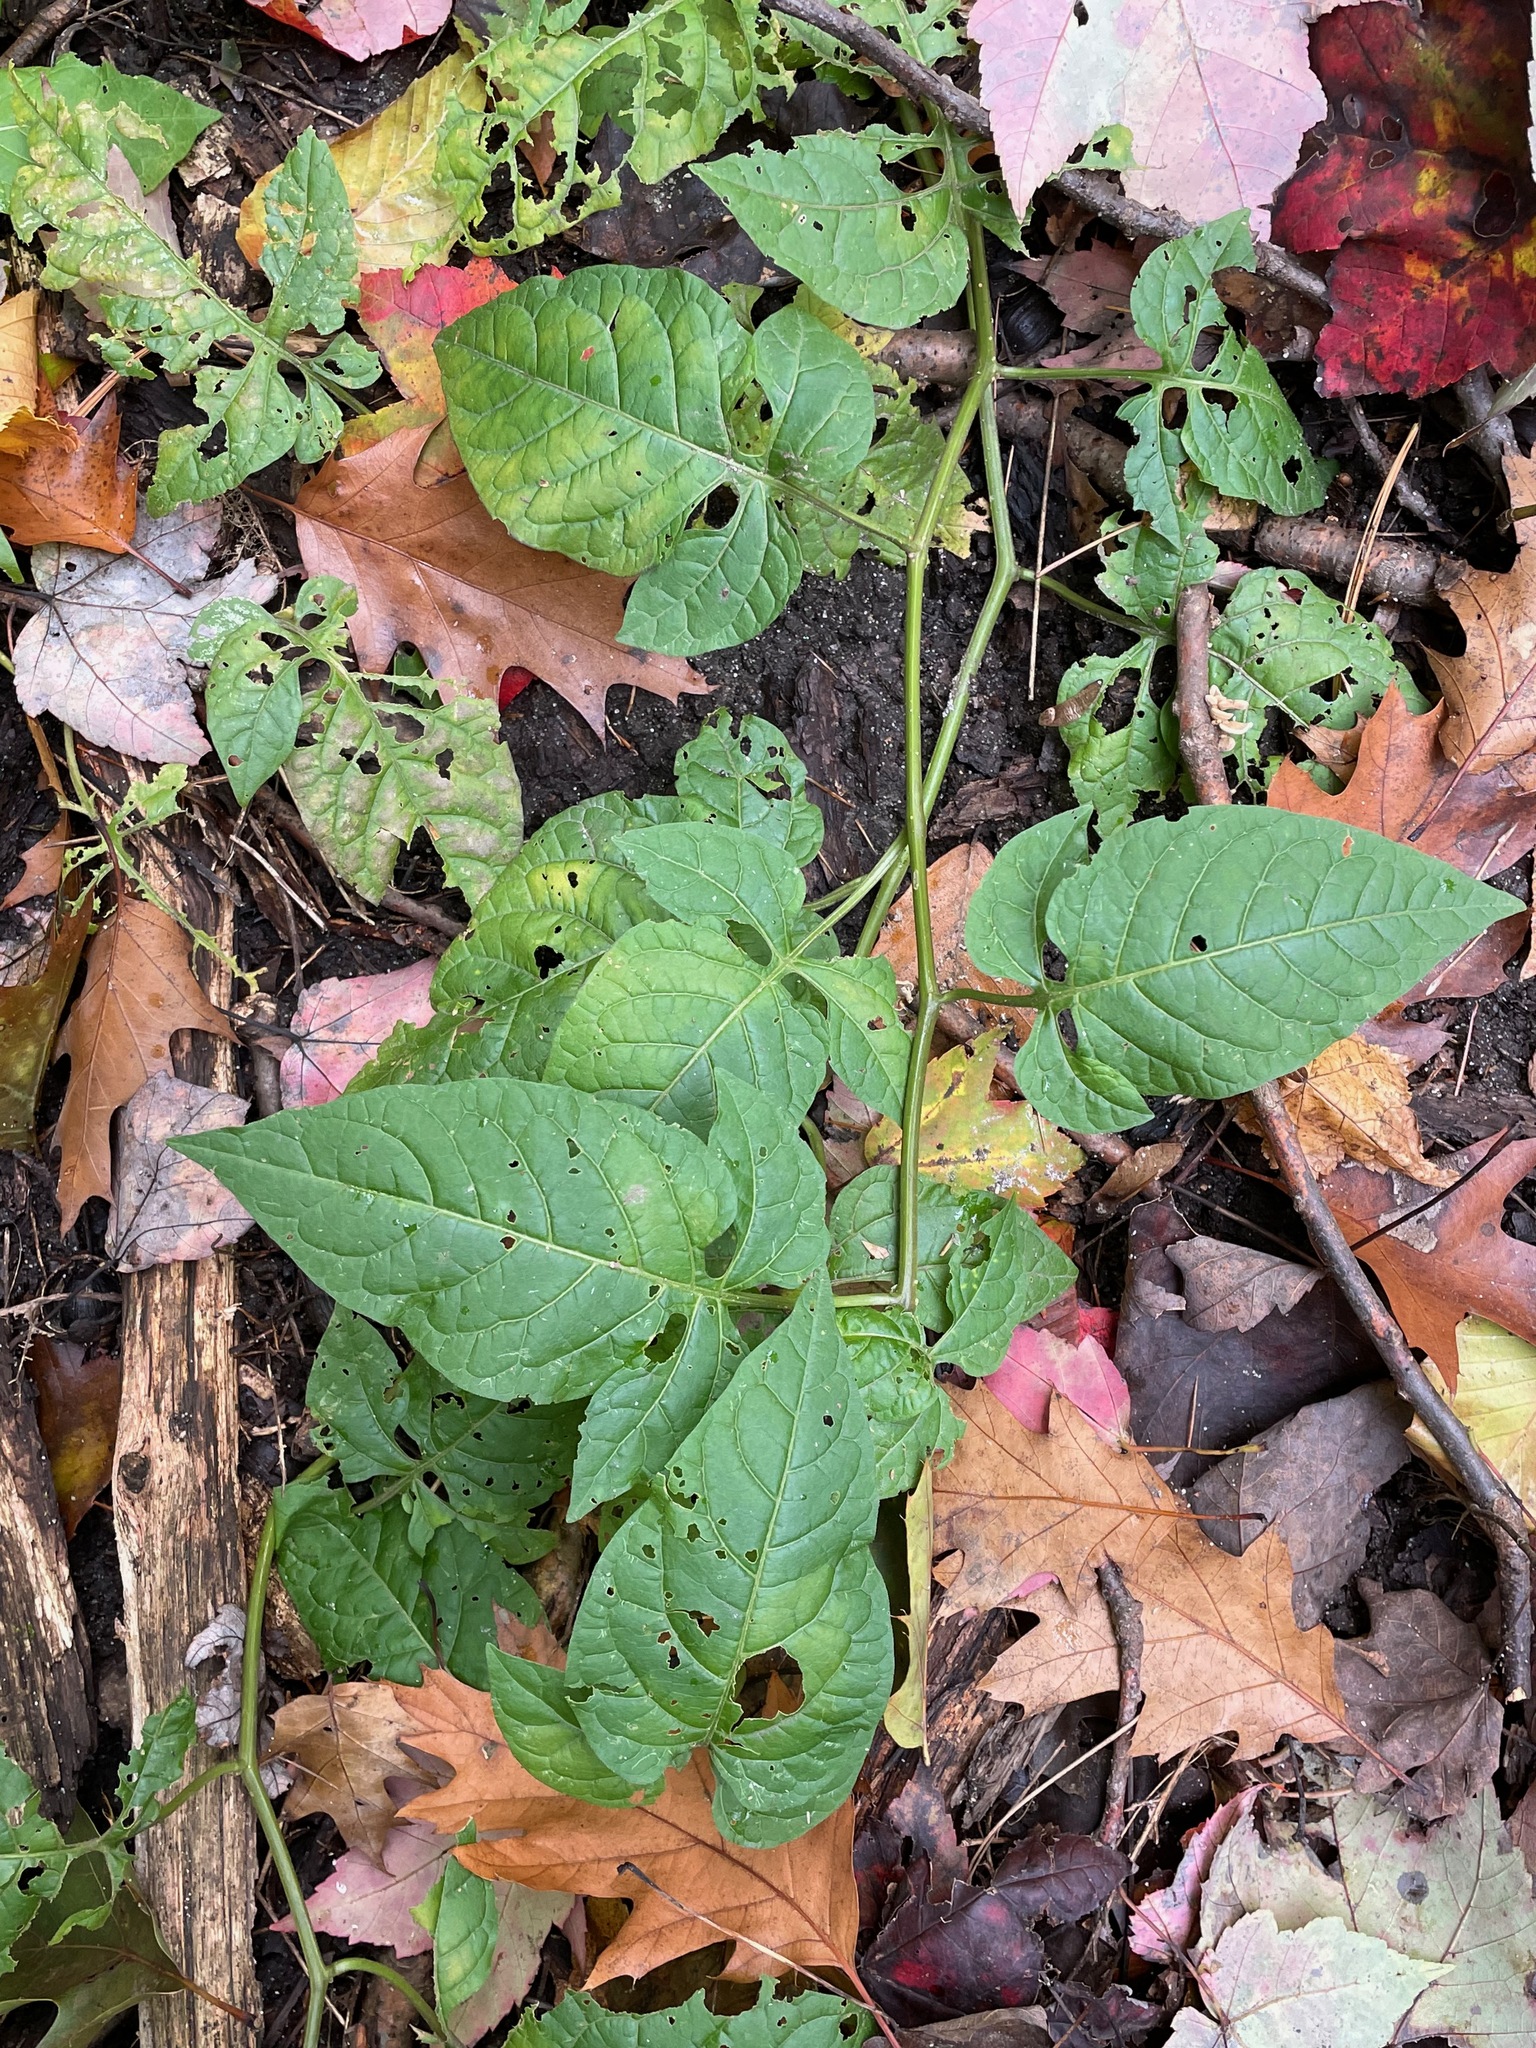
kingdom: Plantae
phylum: Tracheophyta
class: Magnoliopsida
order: Solanales
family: Solanaceae
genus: Solanum
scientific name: Solanum dulcamara
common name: Climbing nightshade
